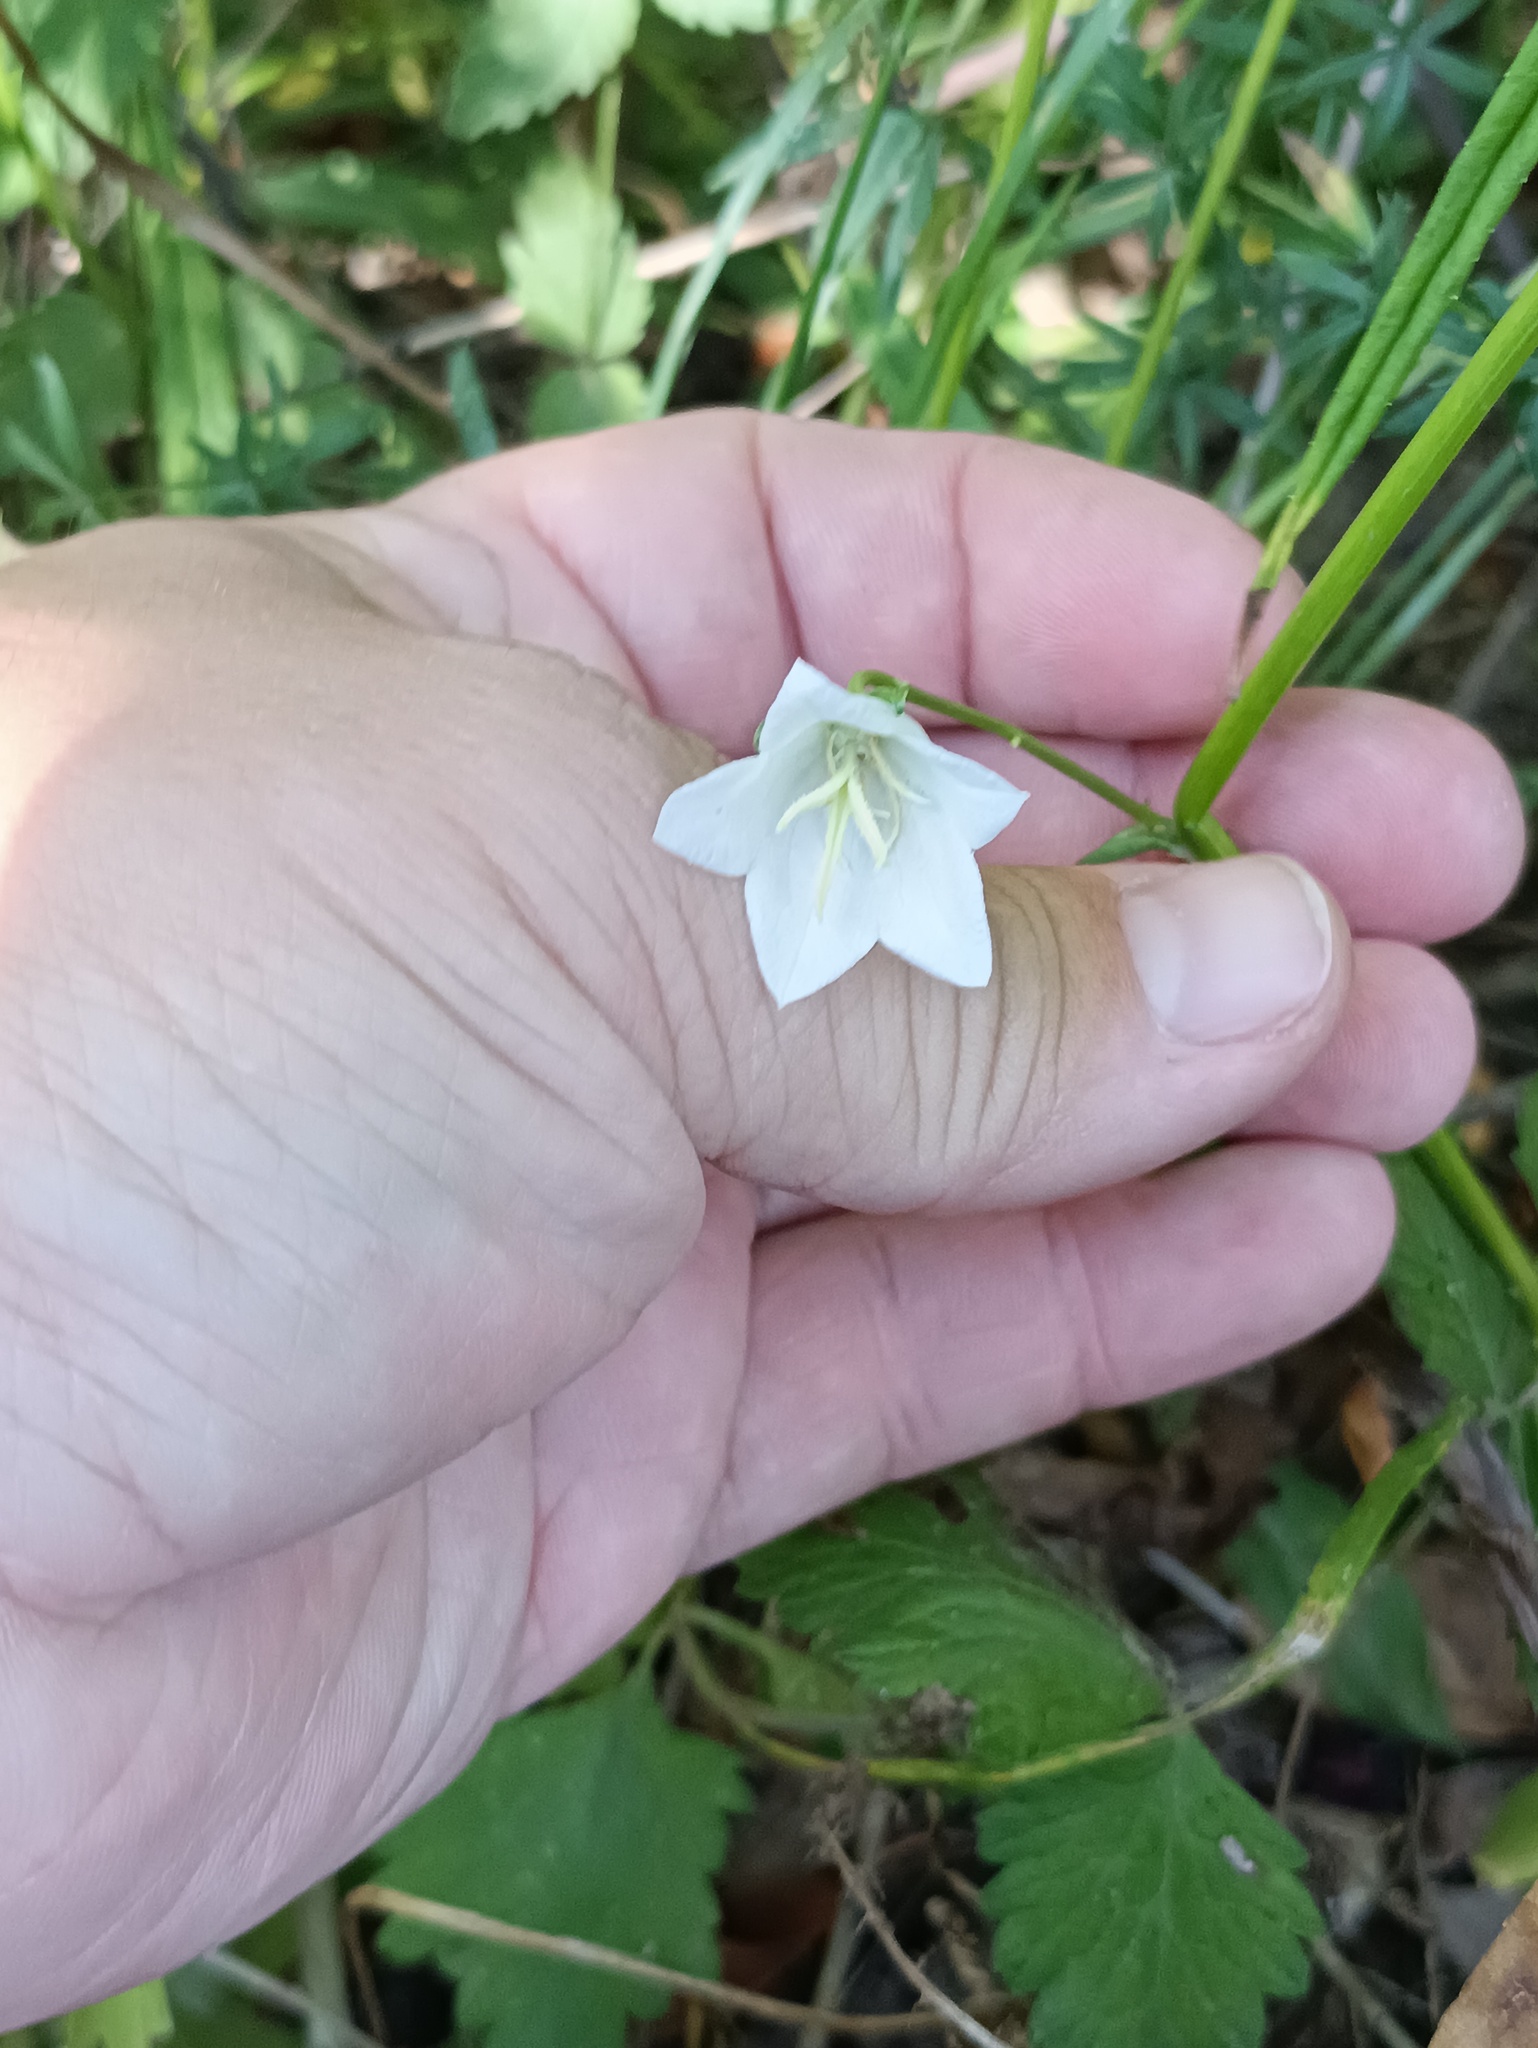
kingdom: Plantae
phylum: Tracheophyta
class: Magnoliopsida
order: Asterales
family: Campanulaceae
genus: Campanula
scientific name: Campanula persicifolia
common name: Peach-leaved bellflower
